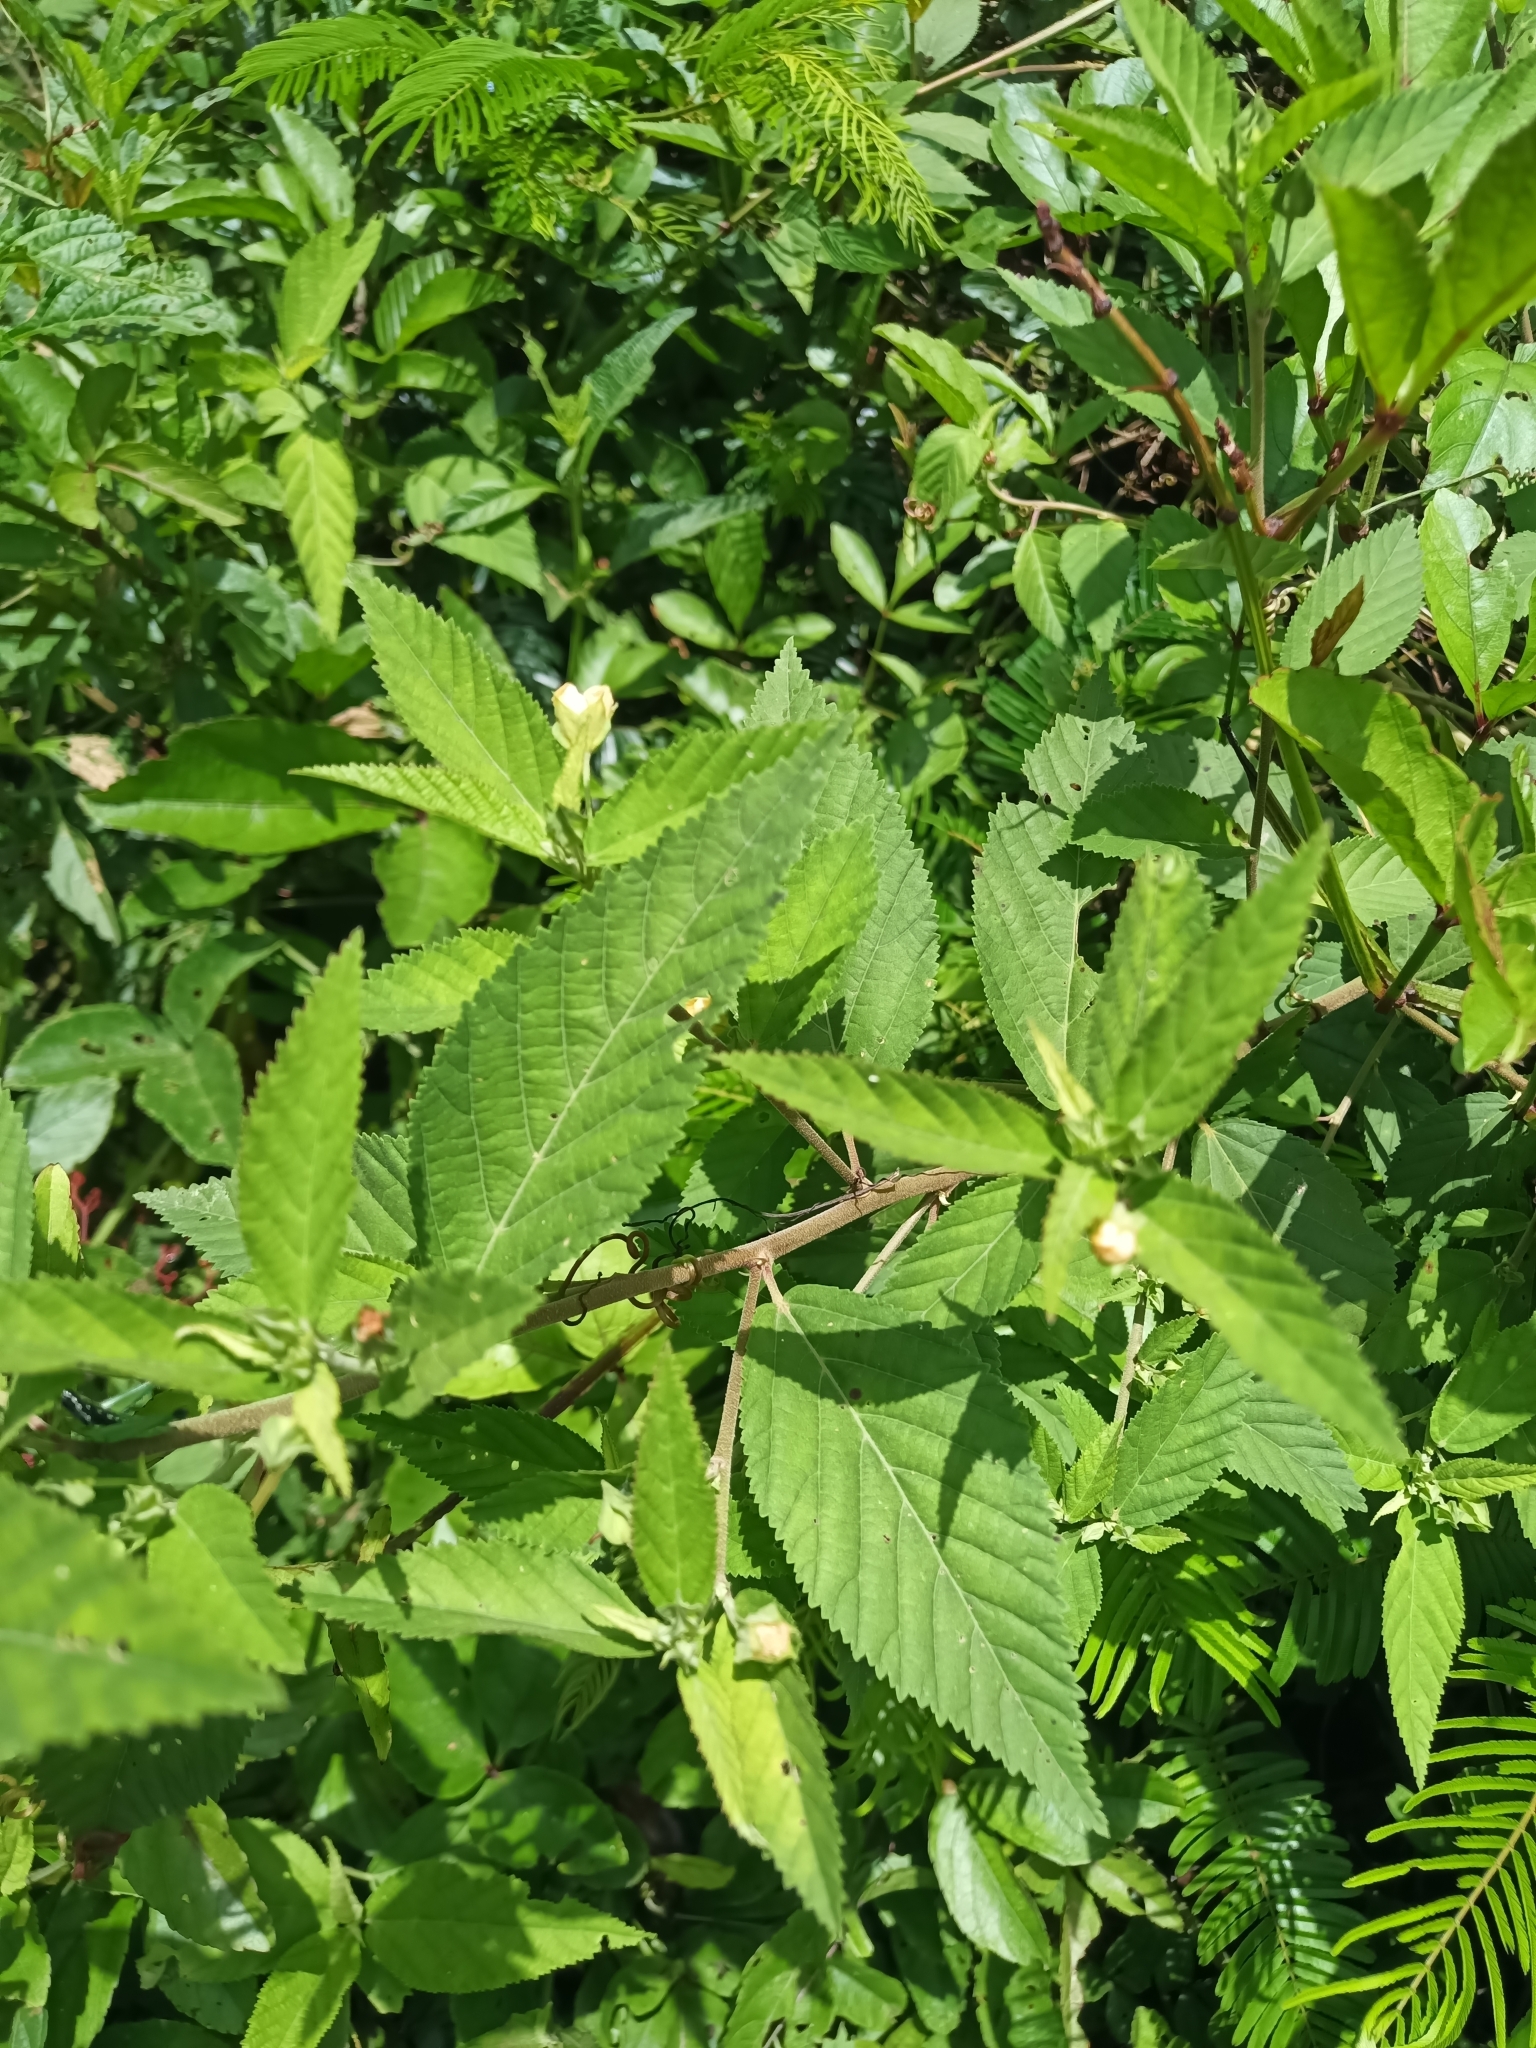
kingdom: Plantae
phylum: Tracheophyta
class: Magnoliopsida
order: Malvales
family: Malvaceae
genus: Sida
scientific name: Sida setosa
